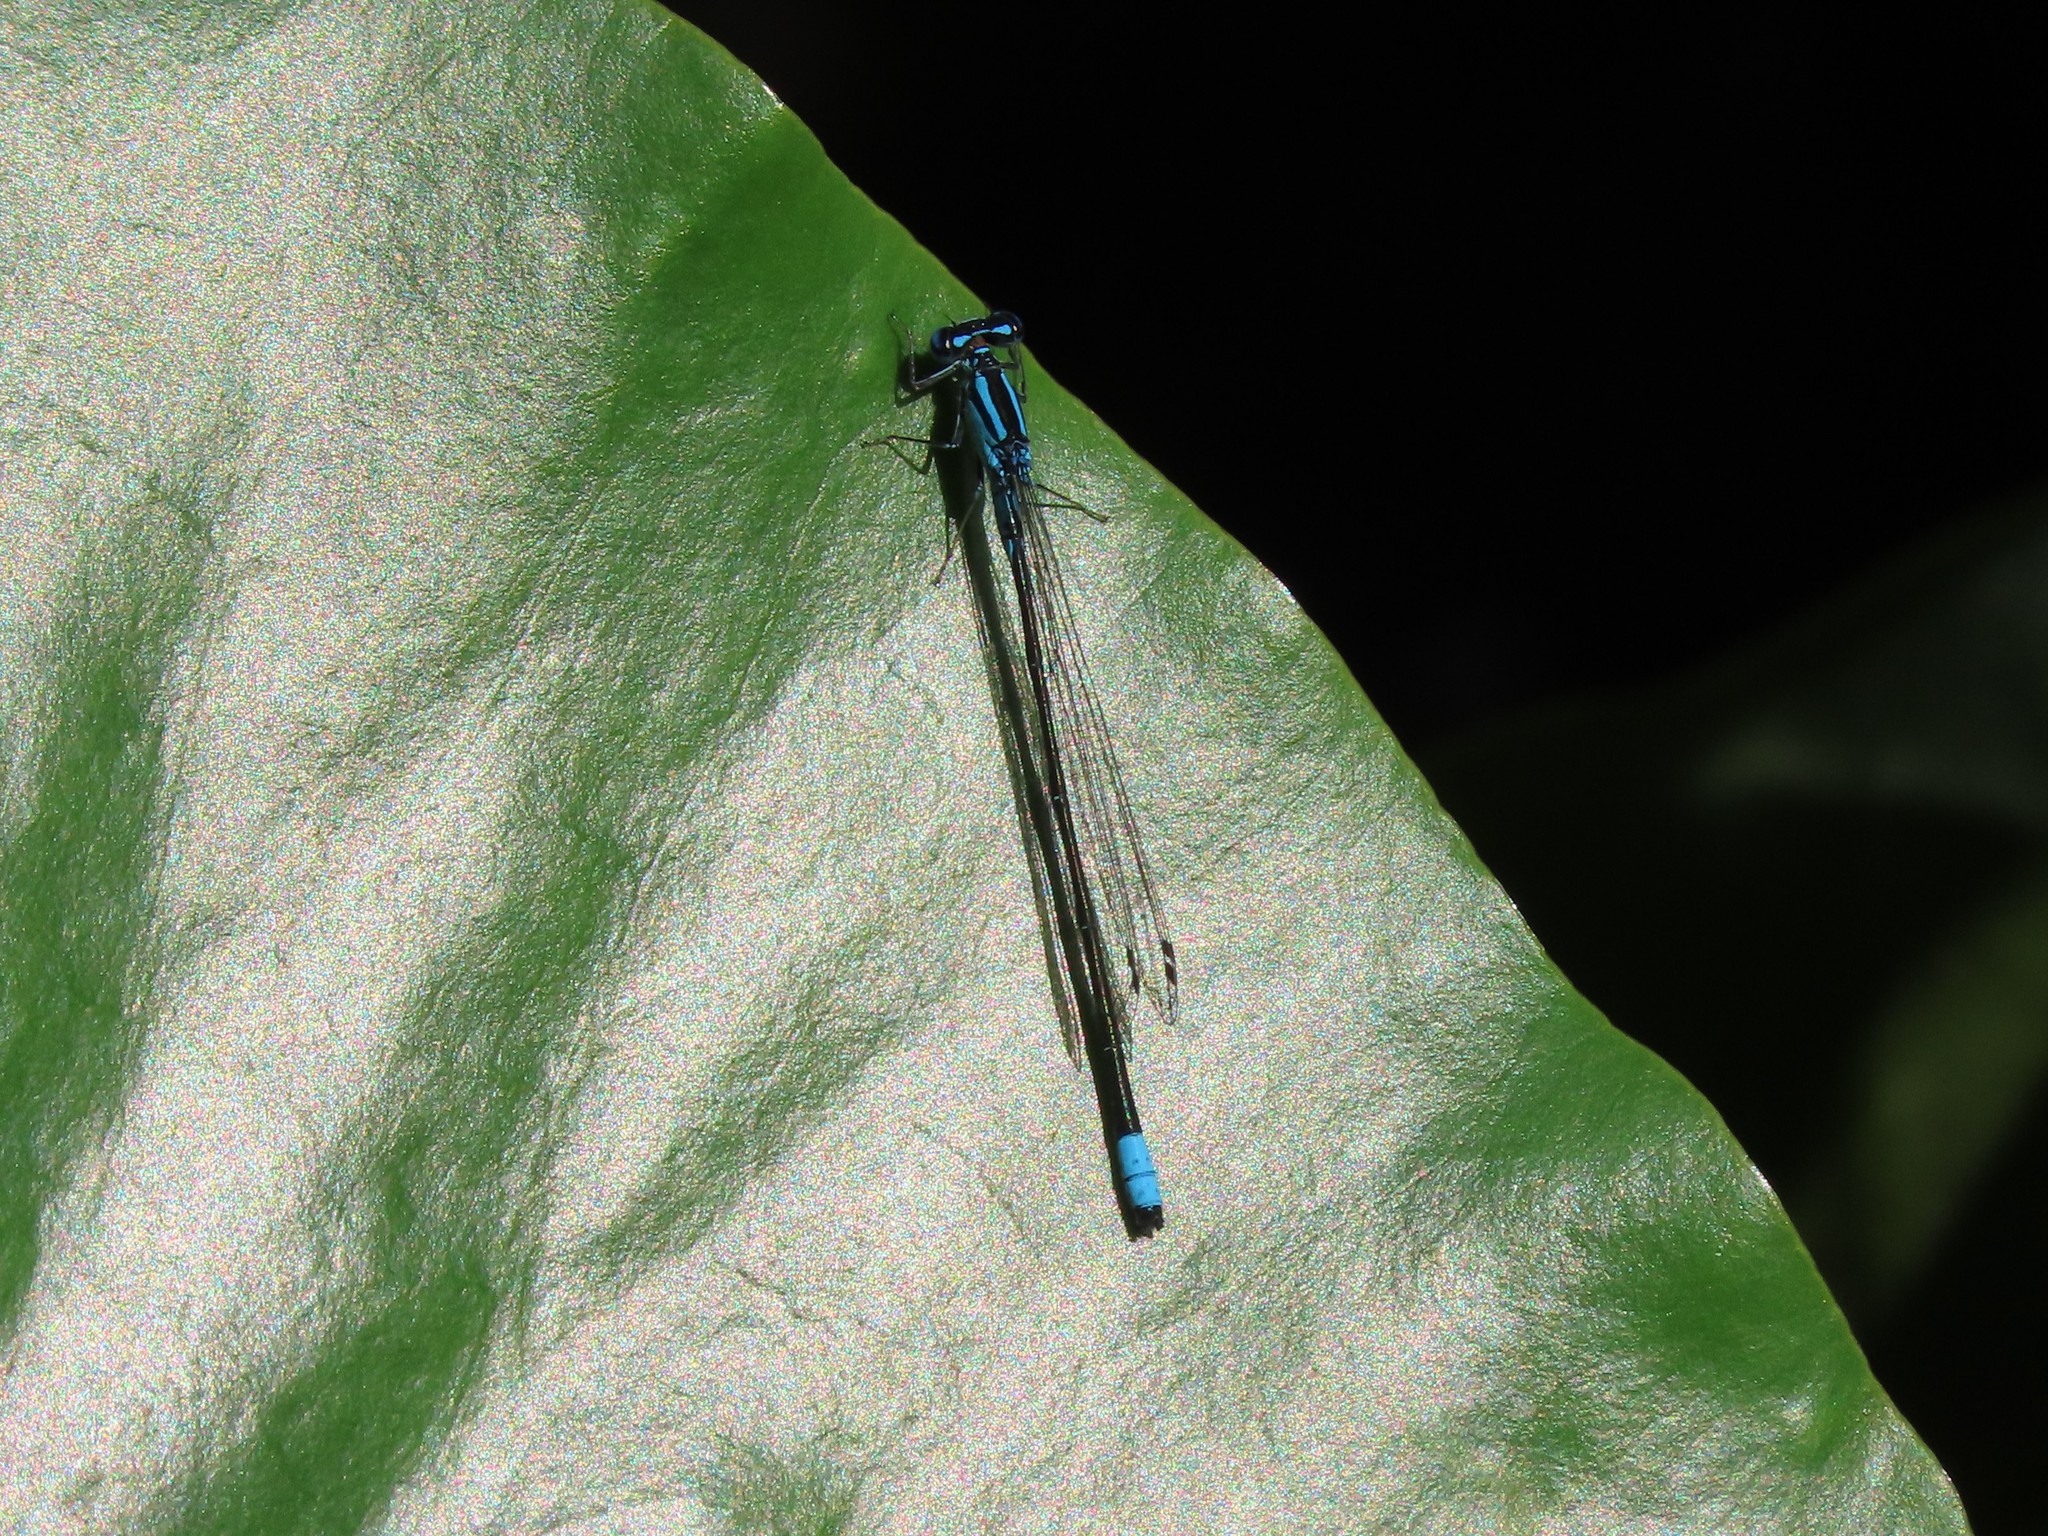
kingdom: Animalia
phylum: Arthropoda
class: Insecta
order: Odonata
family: Coenagrionidae
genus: Enallagma
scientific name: Enallagma divagans
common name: Turquoise bluet
